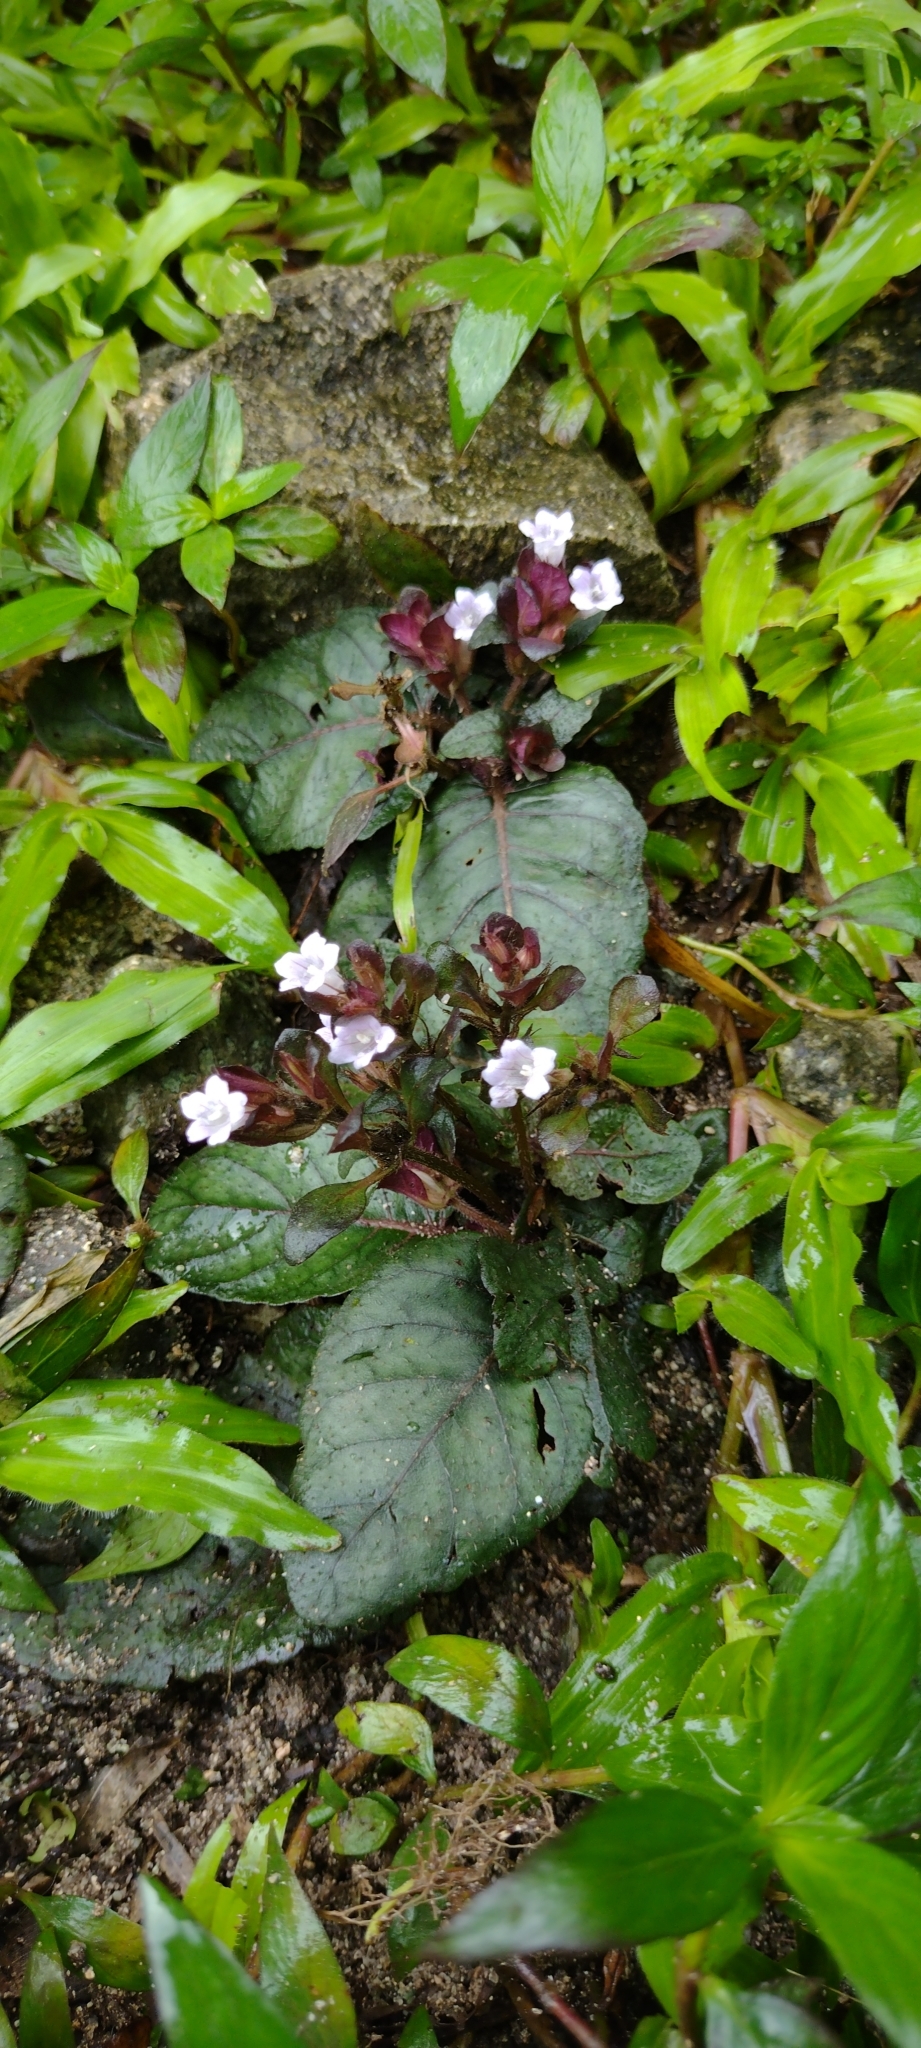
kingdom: Plantae
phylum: Tracheophyta
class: Magnoliopsida
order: Lamiales
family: Acanthaceae
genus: Strobilanthes
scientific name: Strobilanthes reptans
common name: Acanthaceae
